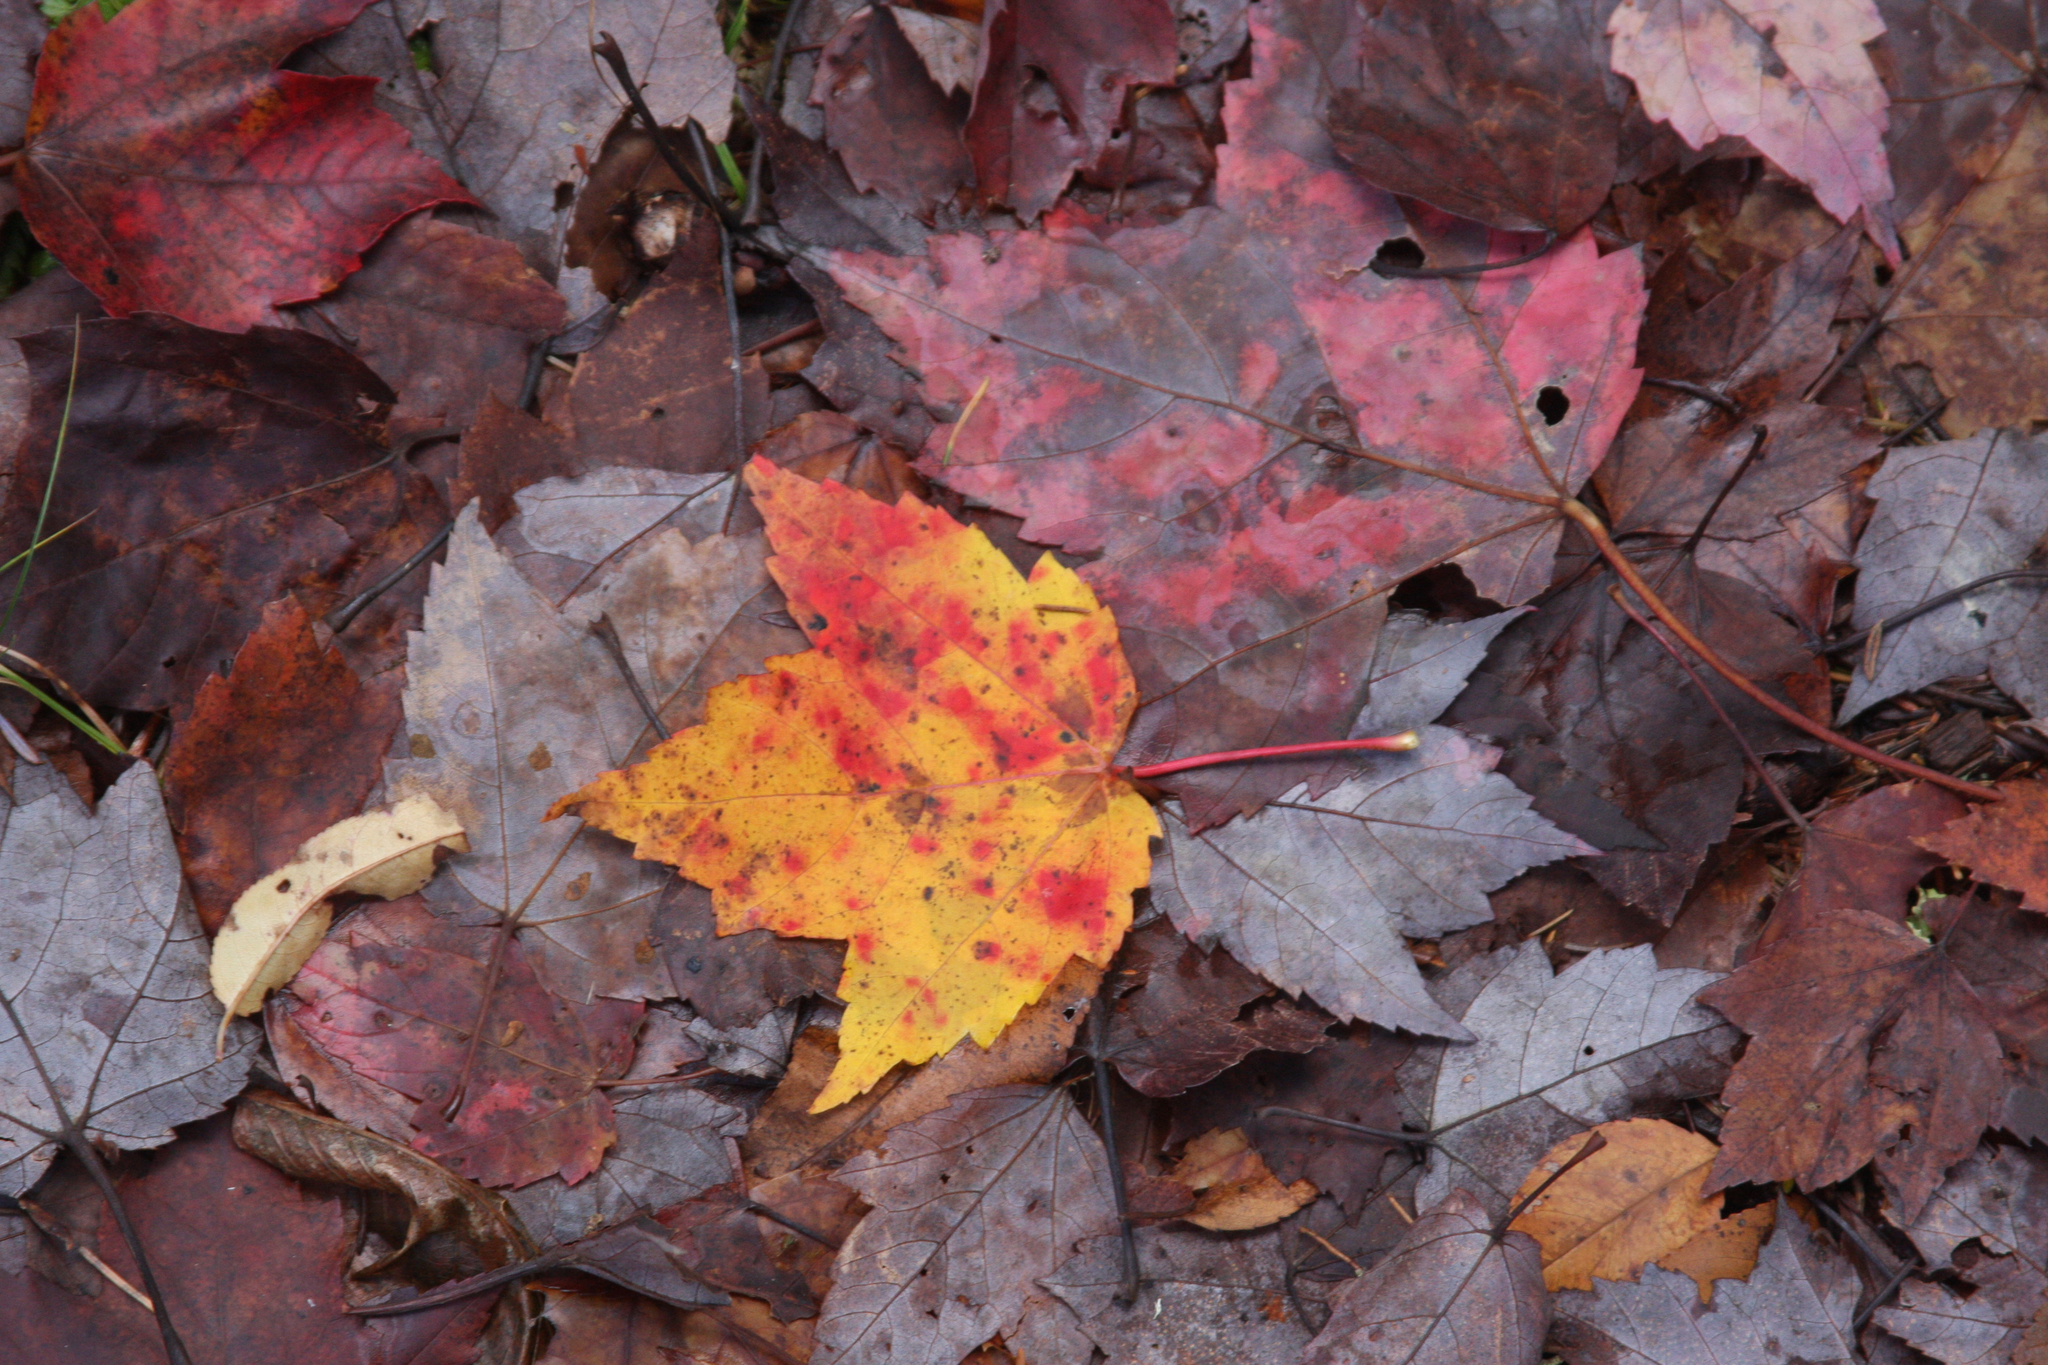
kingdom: Plantae
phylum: Tracheophyta
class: Magnoliopsida
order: Sapindales
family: Sapindaceae
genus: Acer
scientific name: Acer rubrum
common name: Red maple
